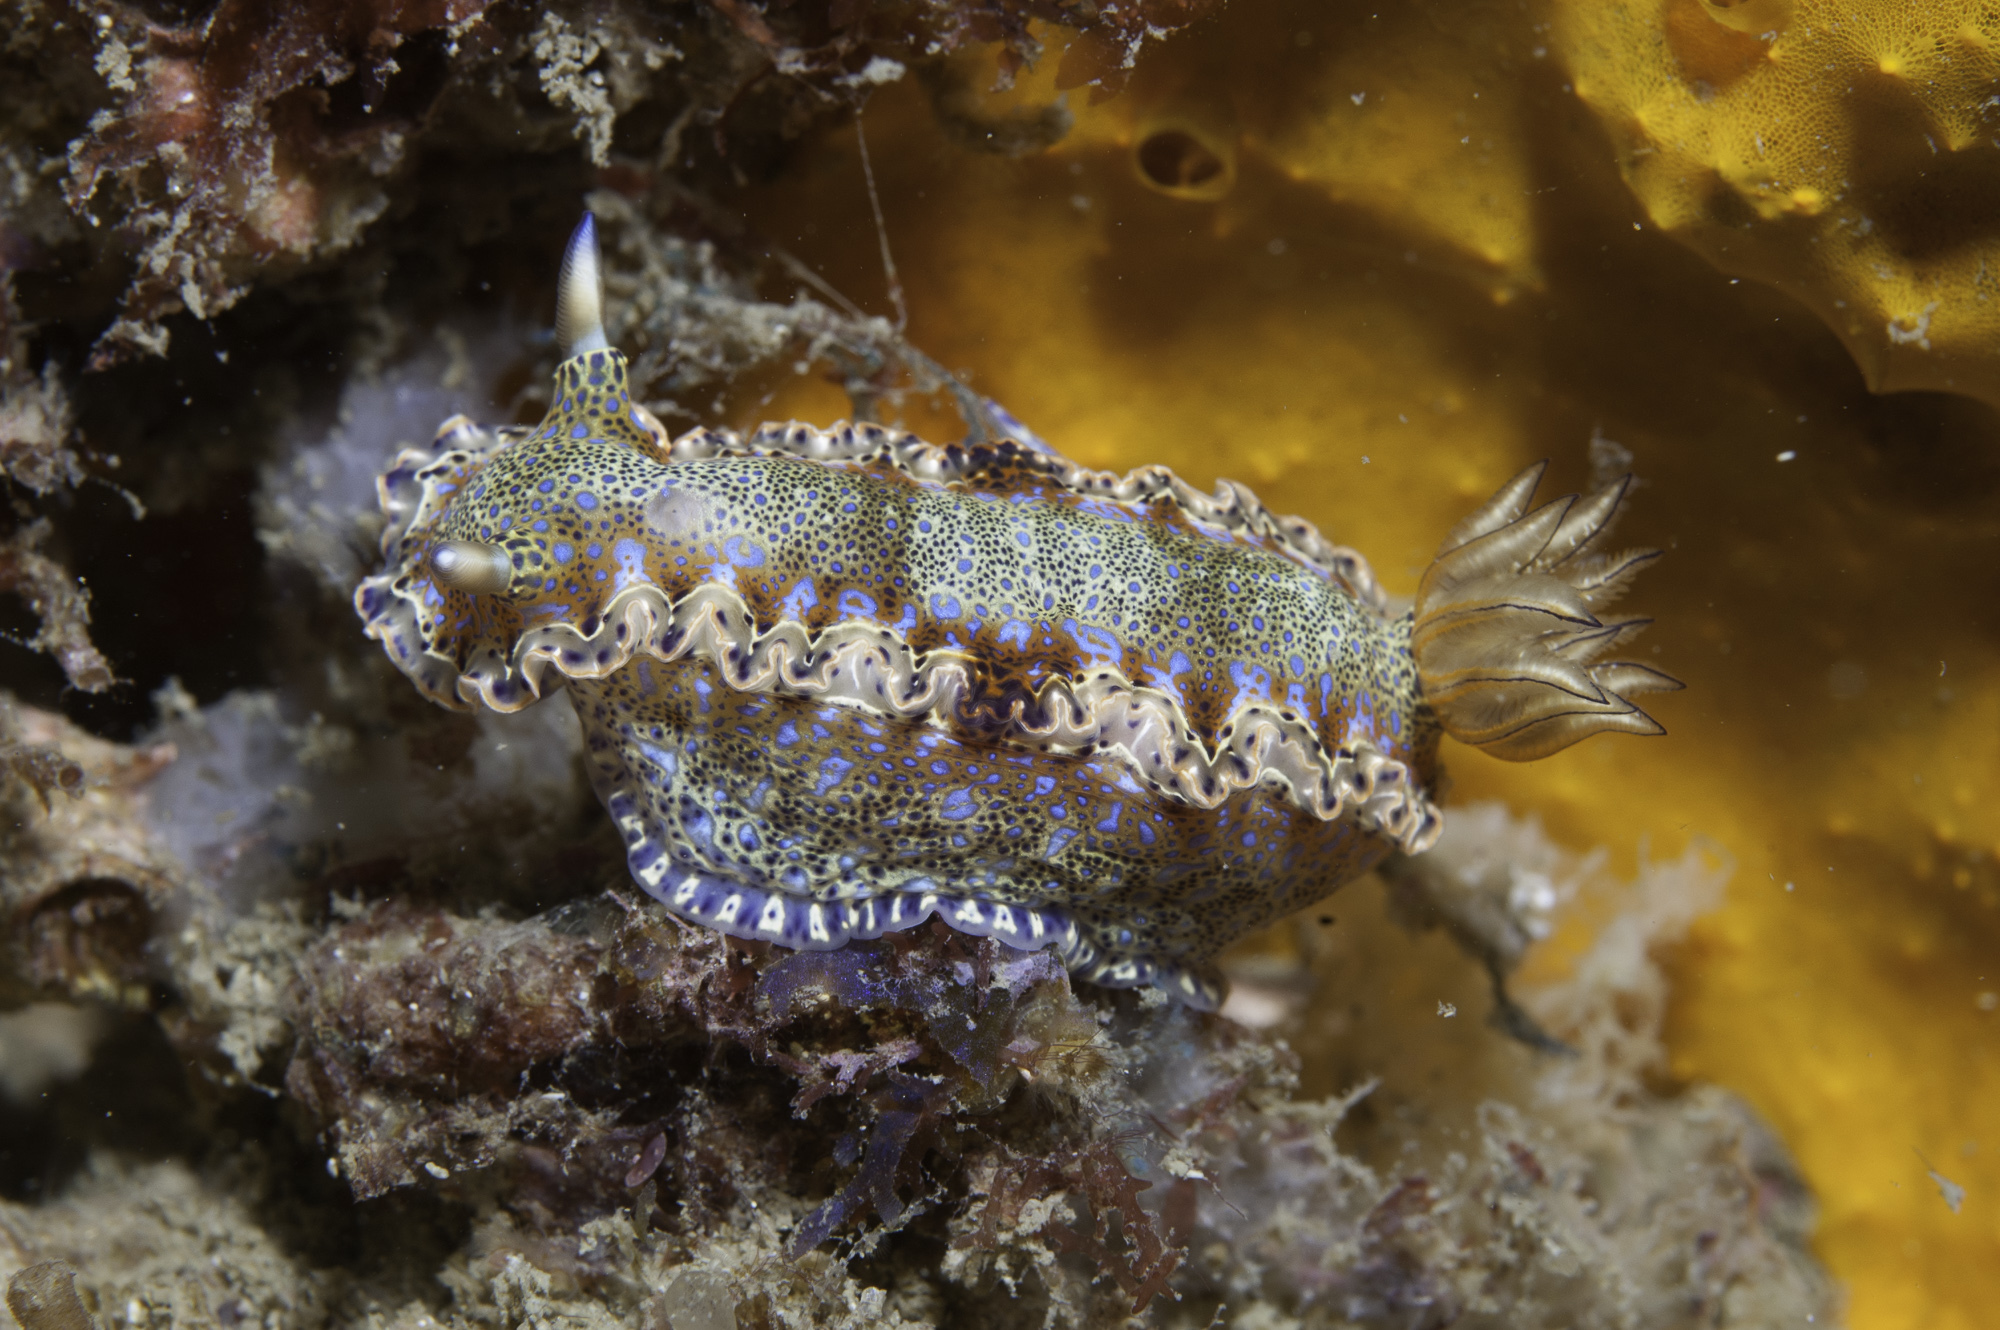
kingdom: Animalia
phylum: Mollusca
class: Gastropoda
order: Nudibranchia
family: Chromodorididae
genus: Felimare
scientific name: Felimare marci
